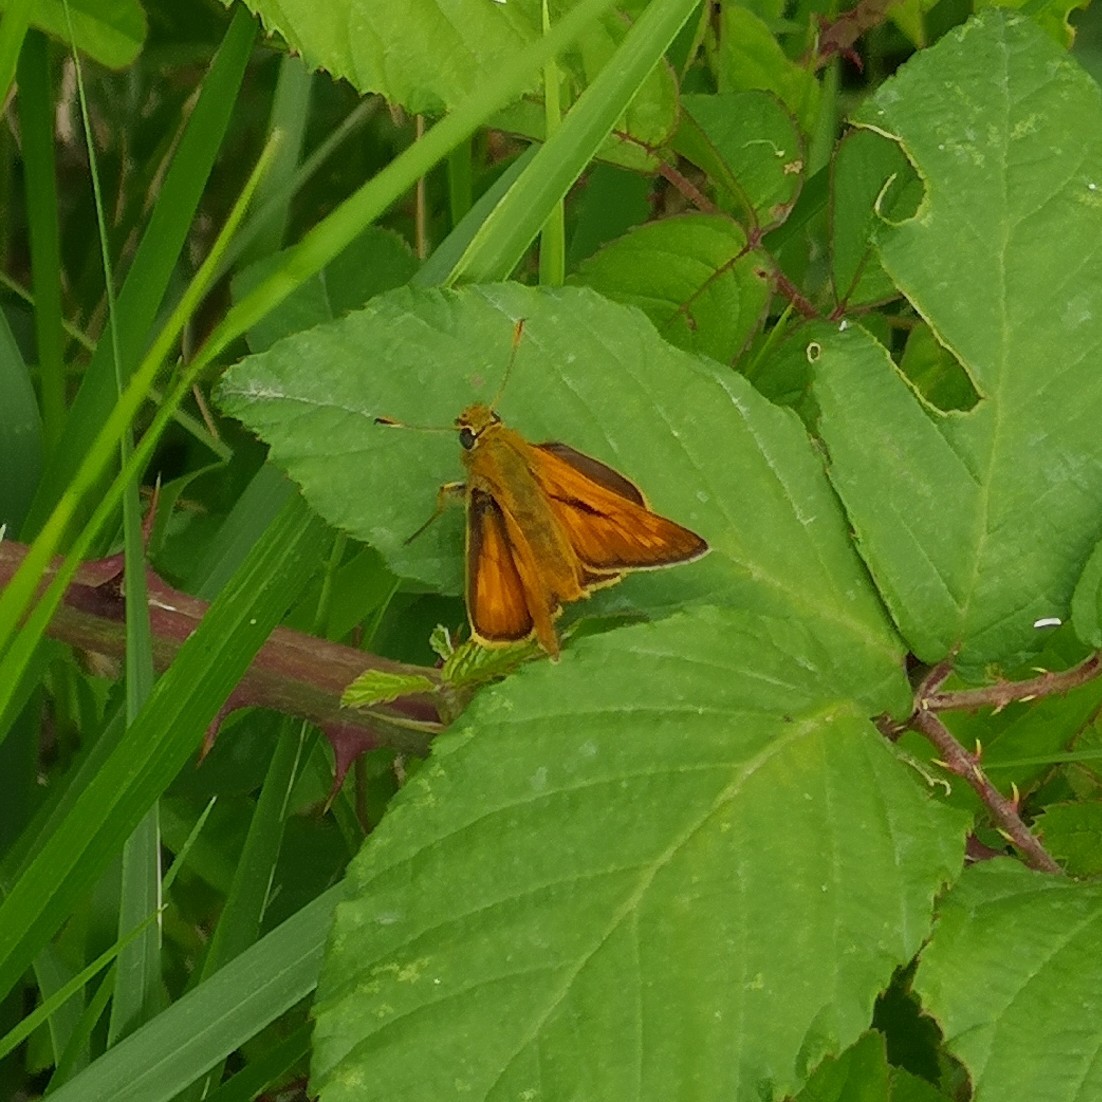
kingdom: Animalia
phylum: Arthropoda
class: Insecta
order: Lepidoptera
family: Hesperiidae
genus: Ochlodes
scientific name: Ochlodes venata
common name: Large skipper
